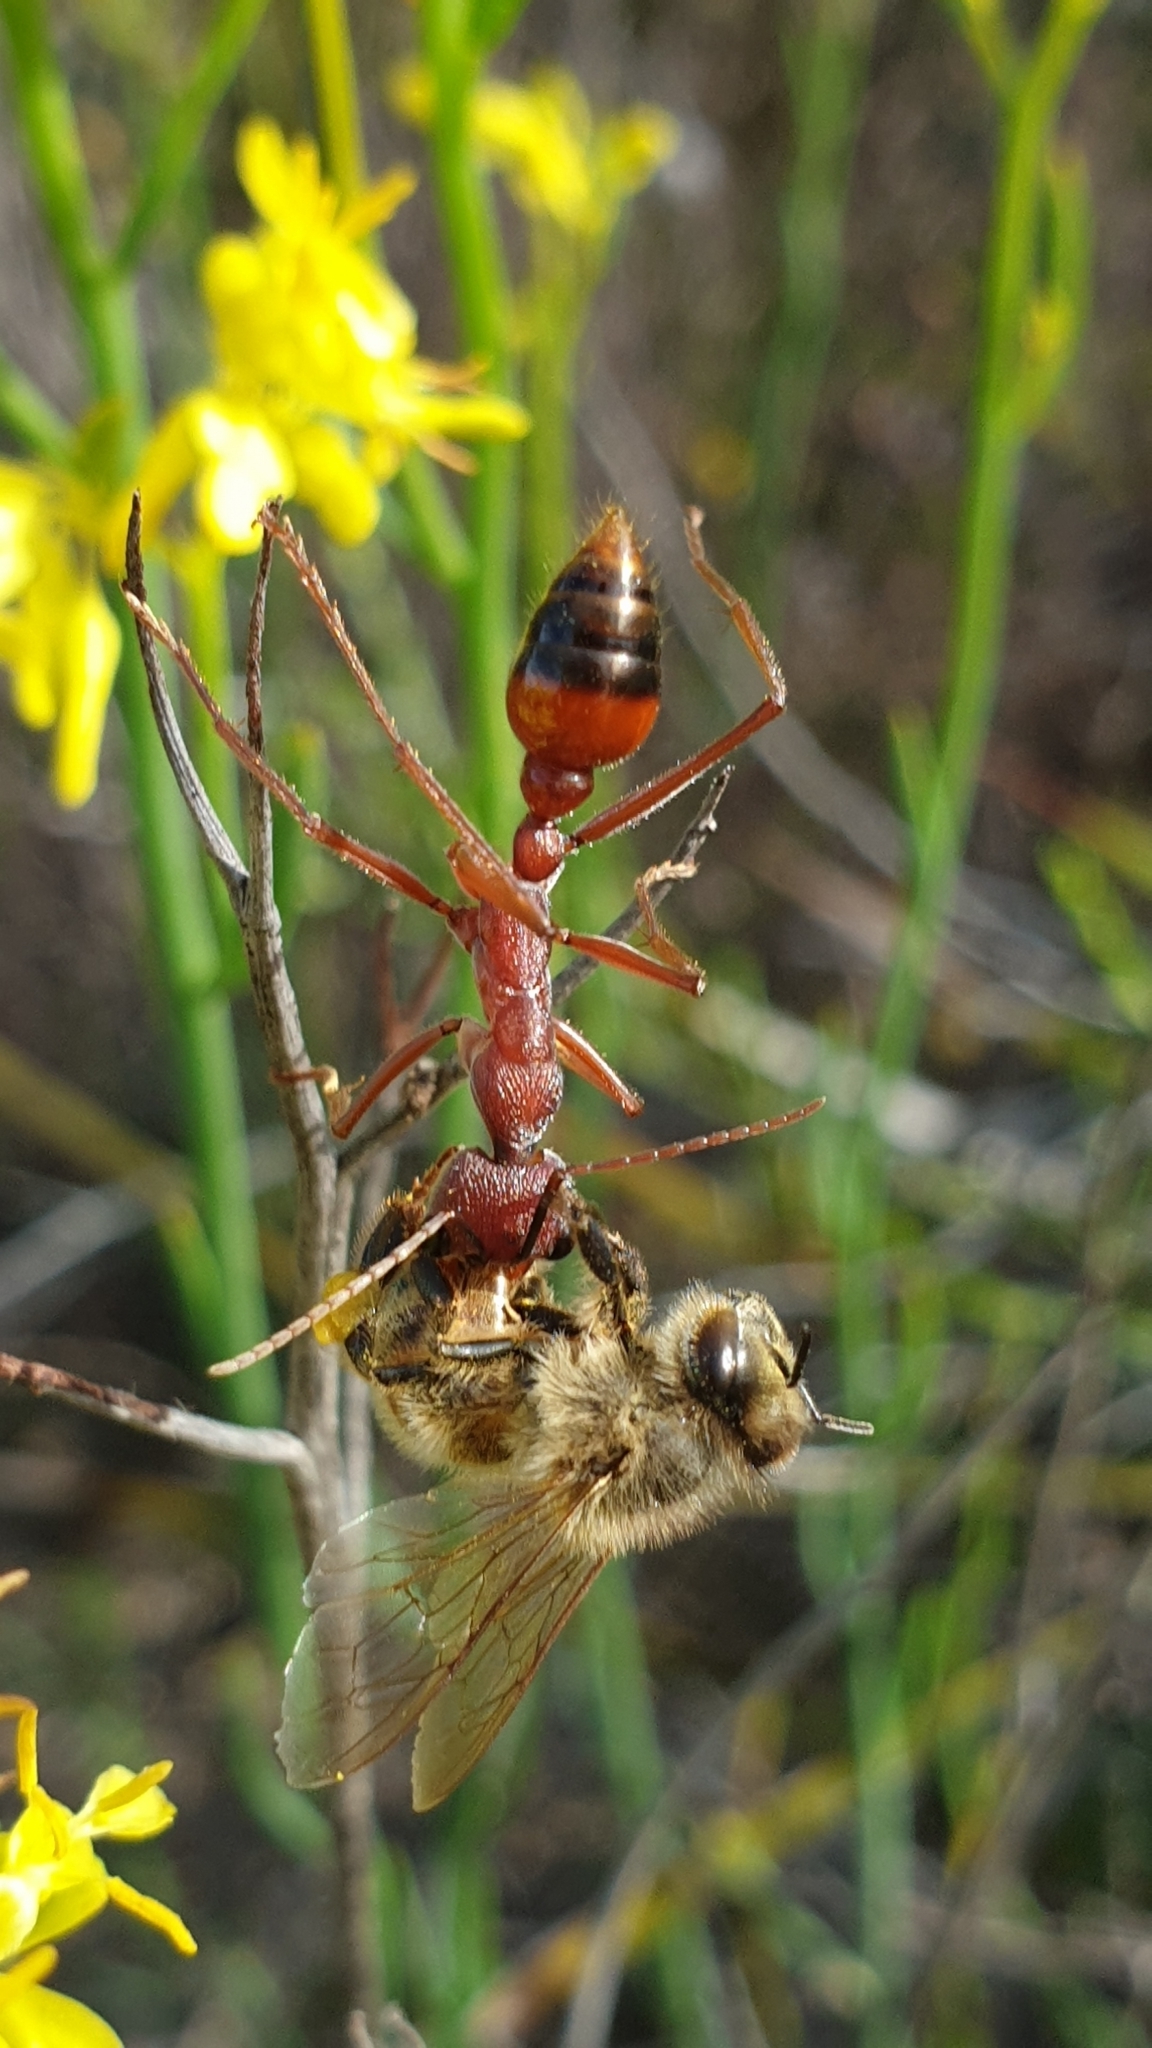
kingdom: Animalia
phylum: Arthropoda
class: Insecta
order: Hymenoptera
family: Formicidae
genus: Myrmecia
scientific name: Myrmecia nigriscapa
